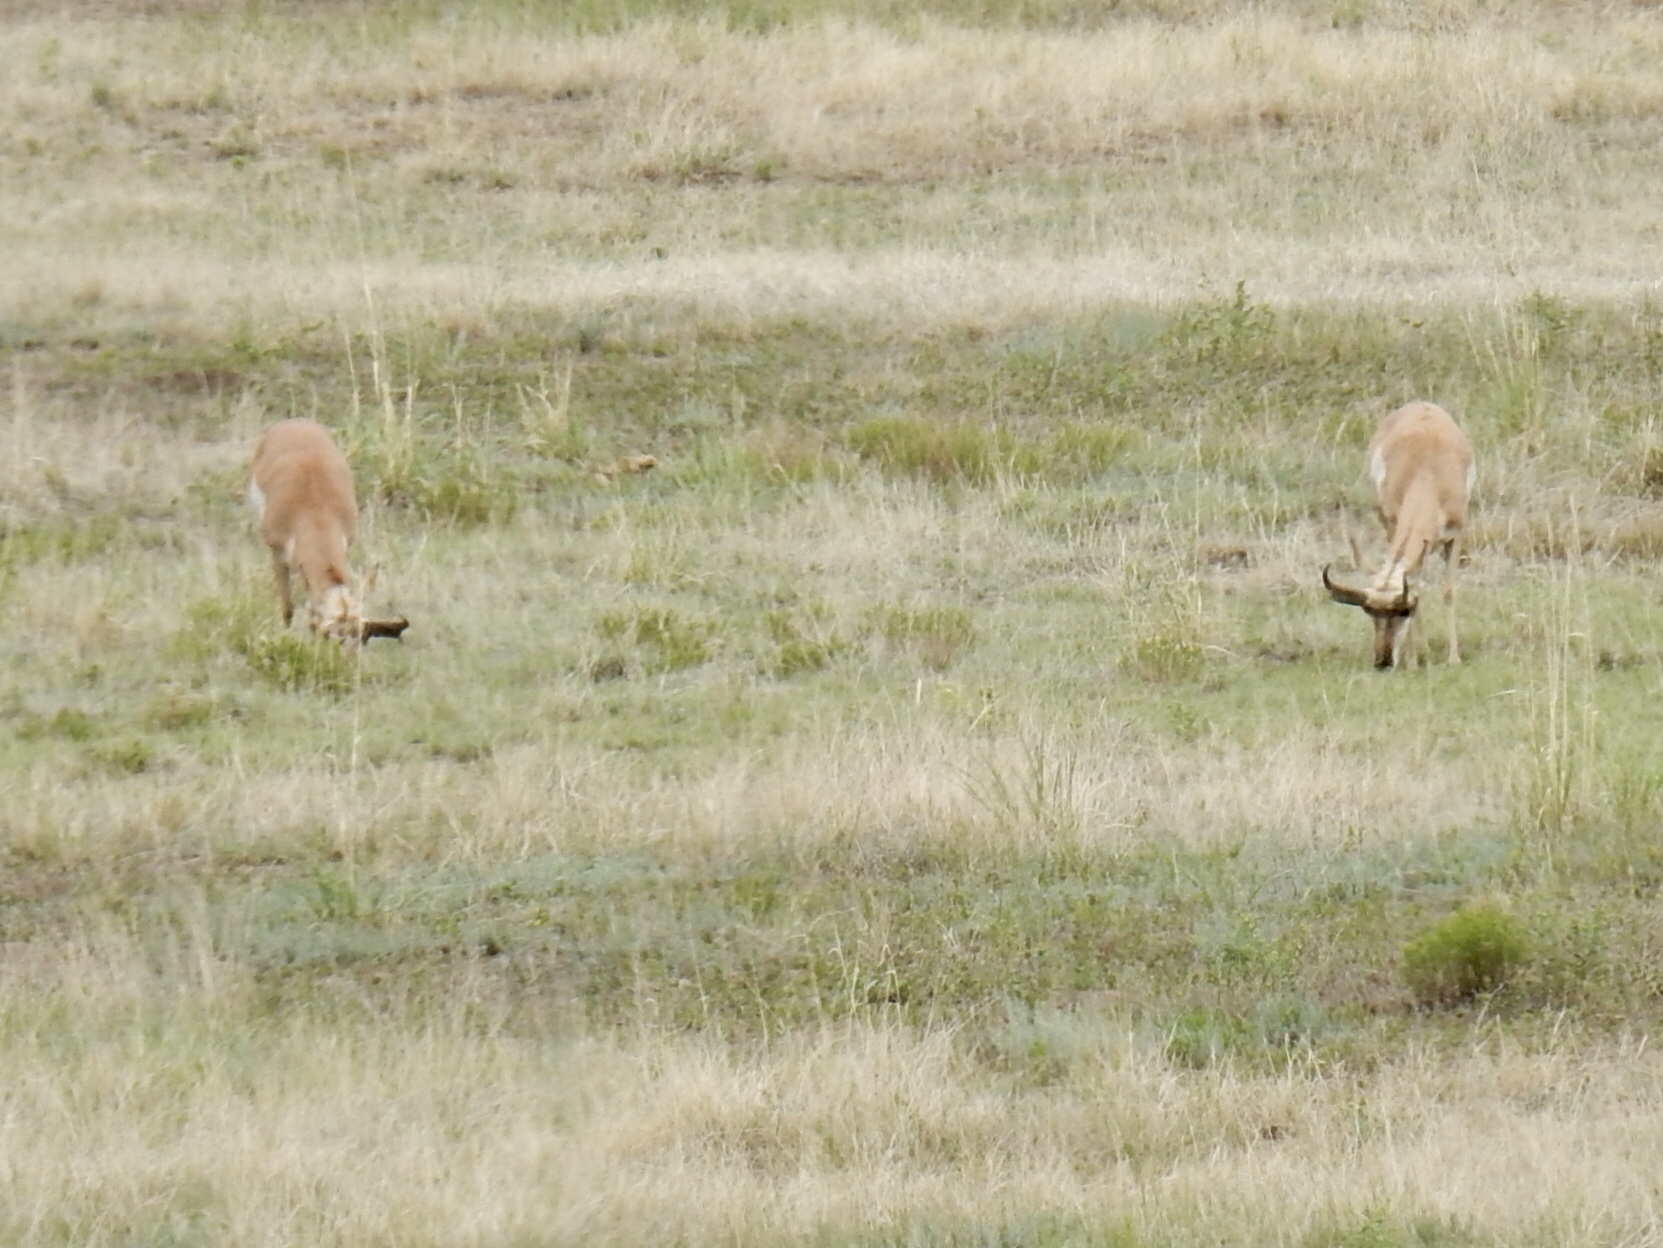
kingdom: Animalia
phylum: Chordata
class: Mammalia
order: Artiodactyla
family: Antilocapridae
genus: Antilocapra
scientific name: Antilocapra americana
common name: Pronghorn
